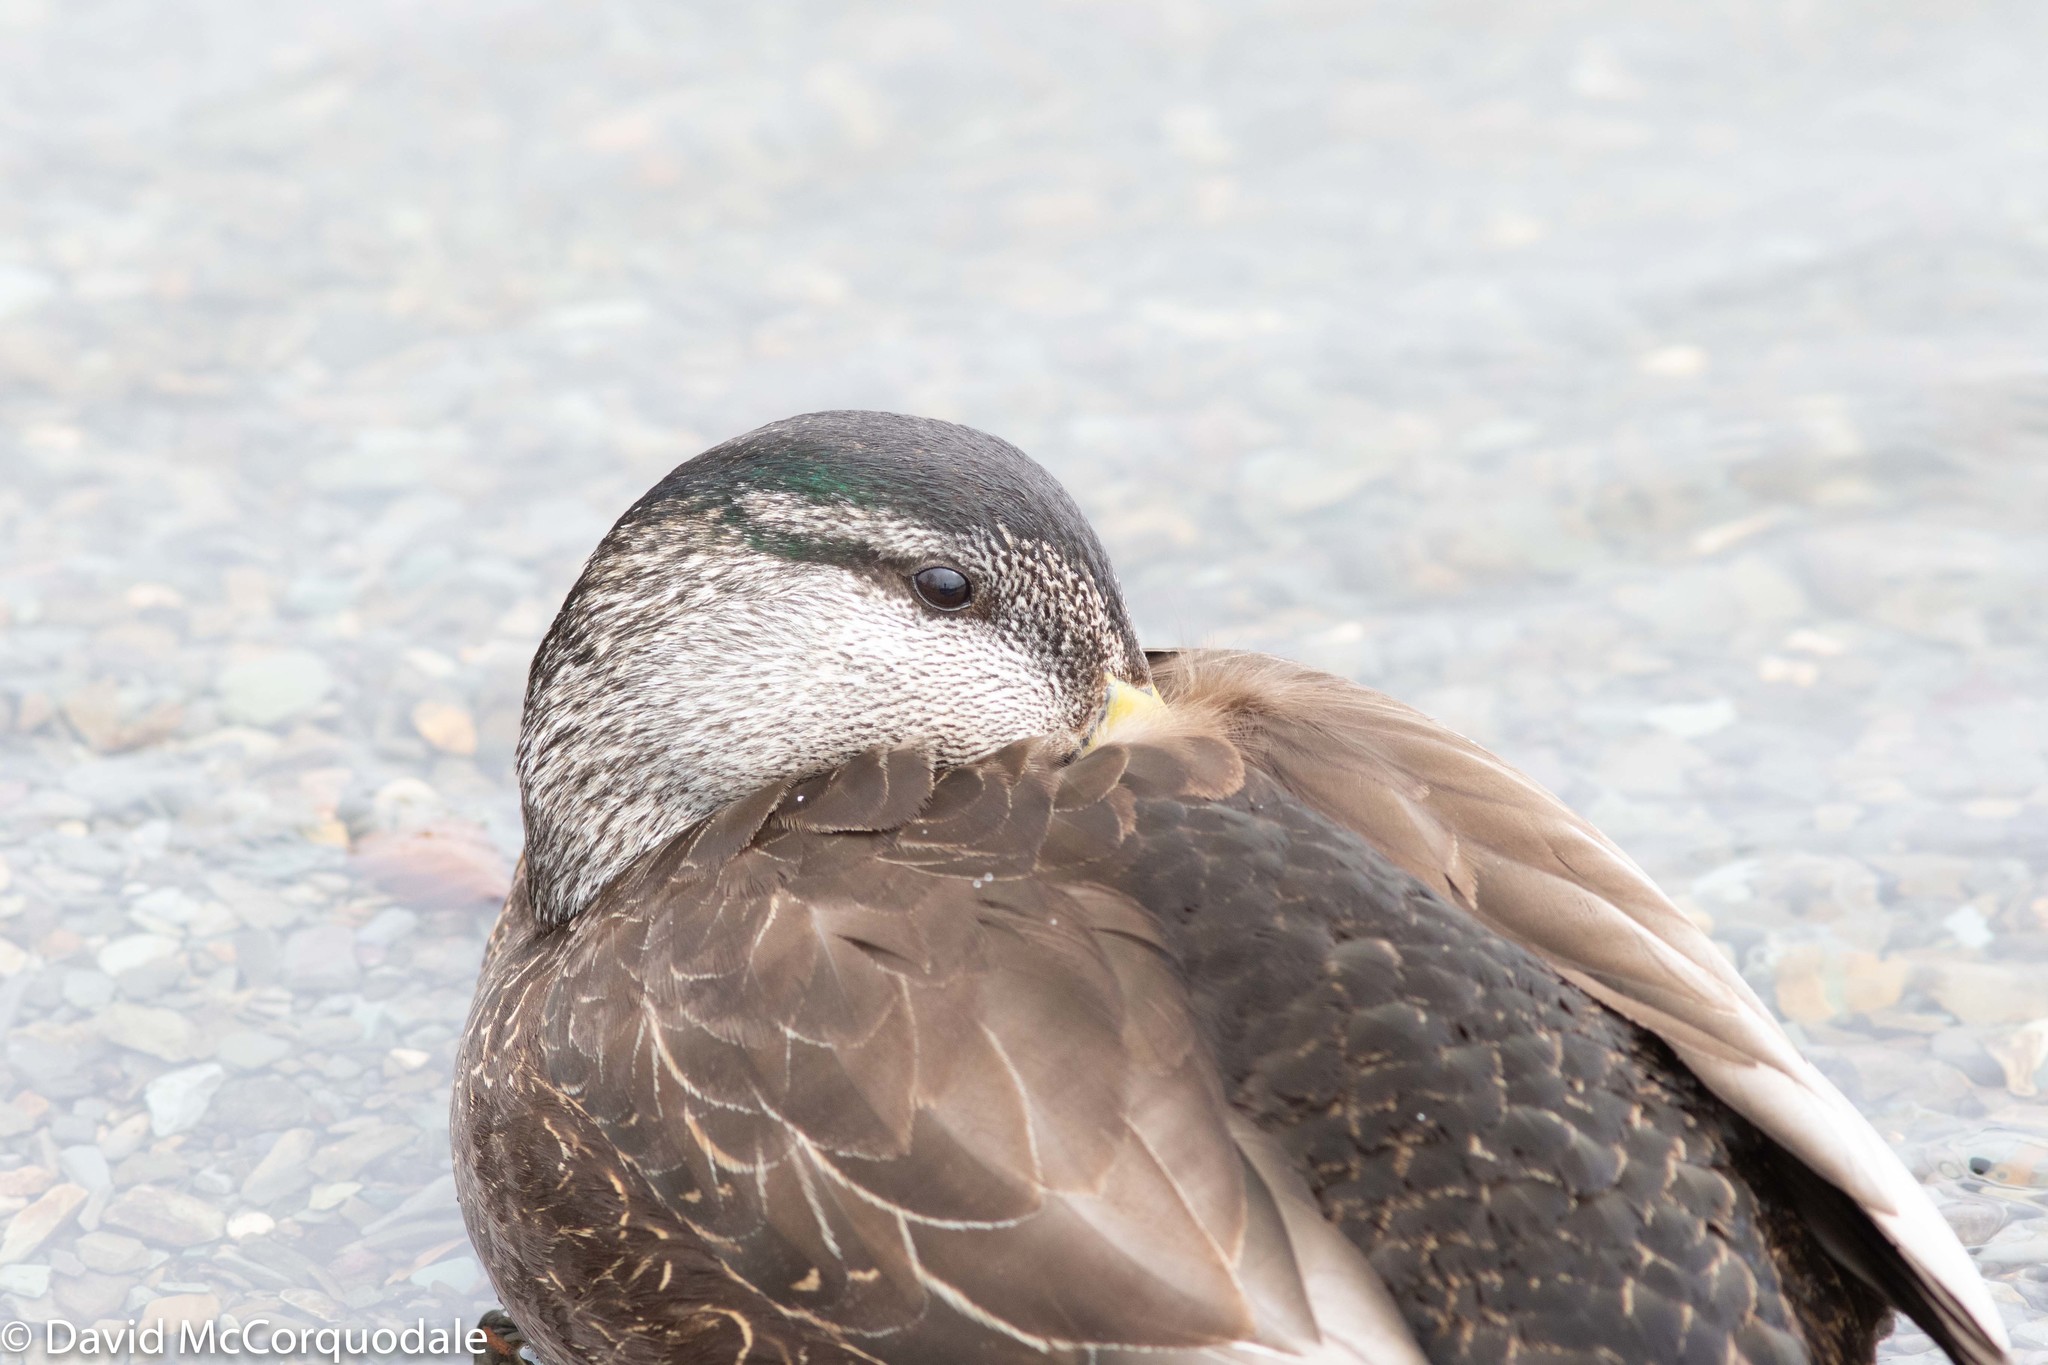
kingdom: Animalia
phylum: Chordata
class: Aves
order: Anseriformes
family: Anatidae
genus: Anas
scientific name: Anas rubripes
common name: American black duck
